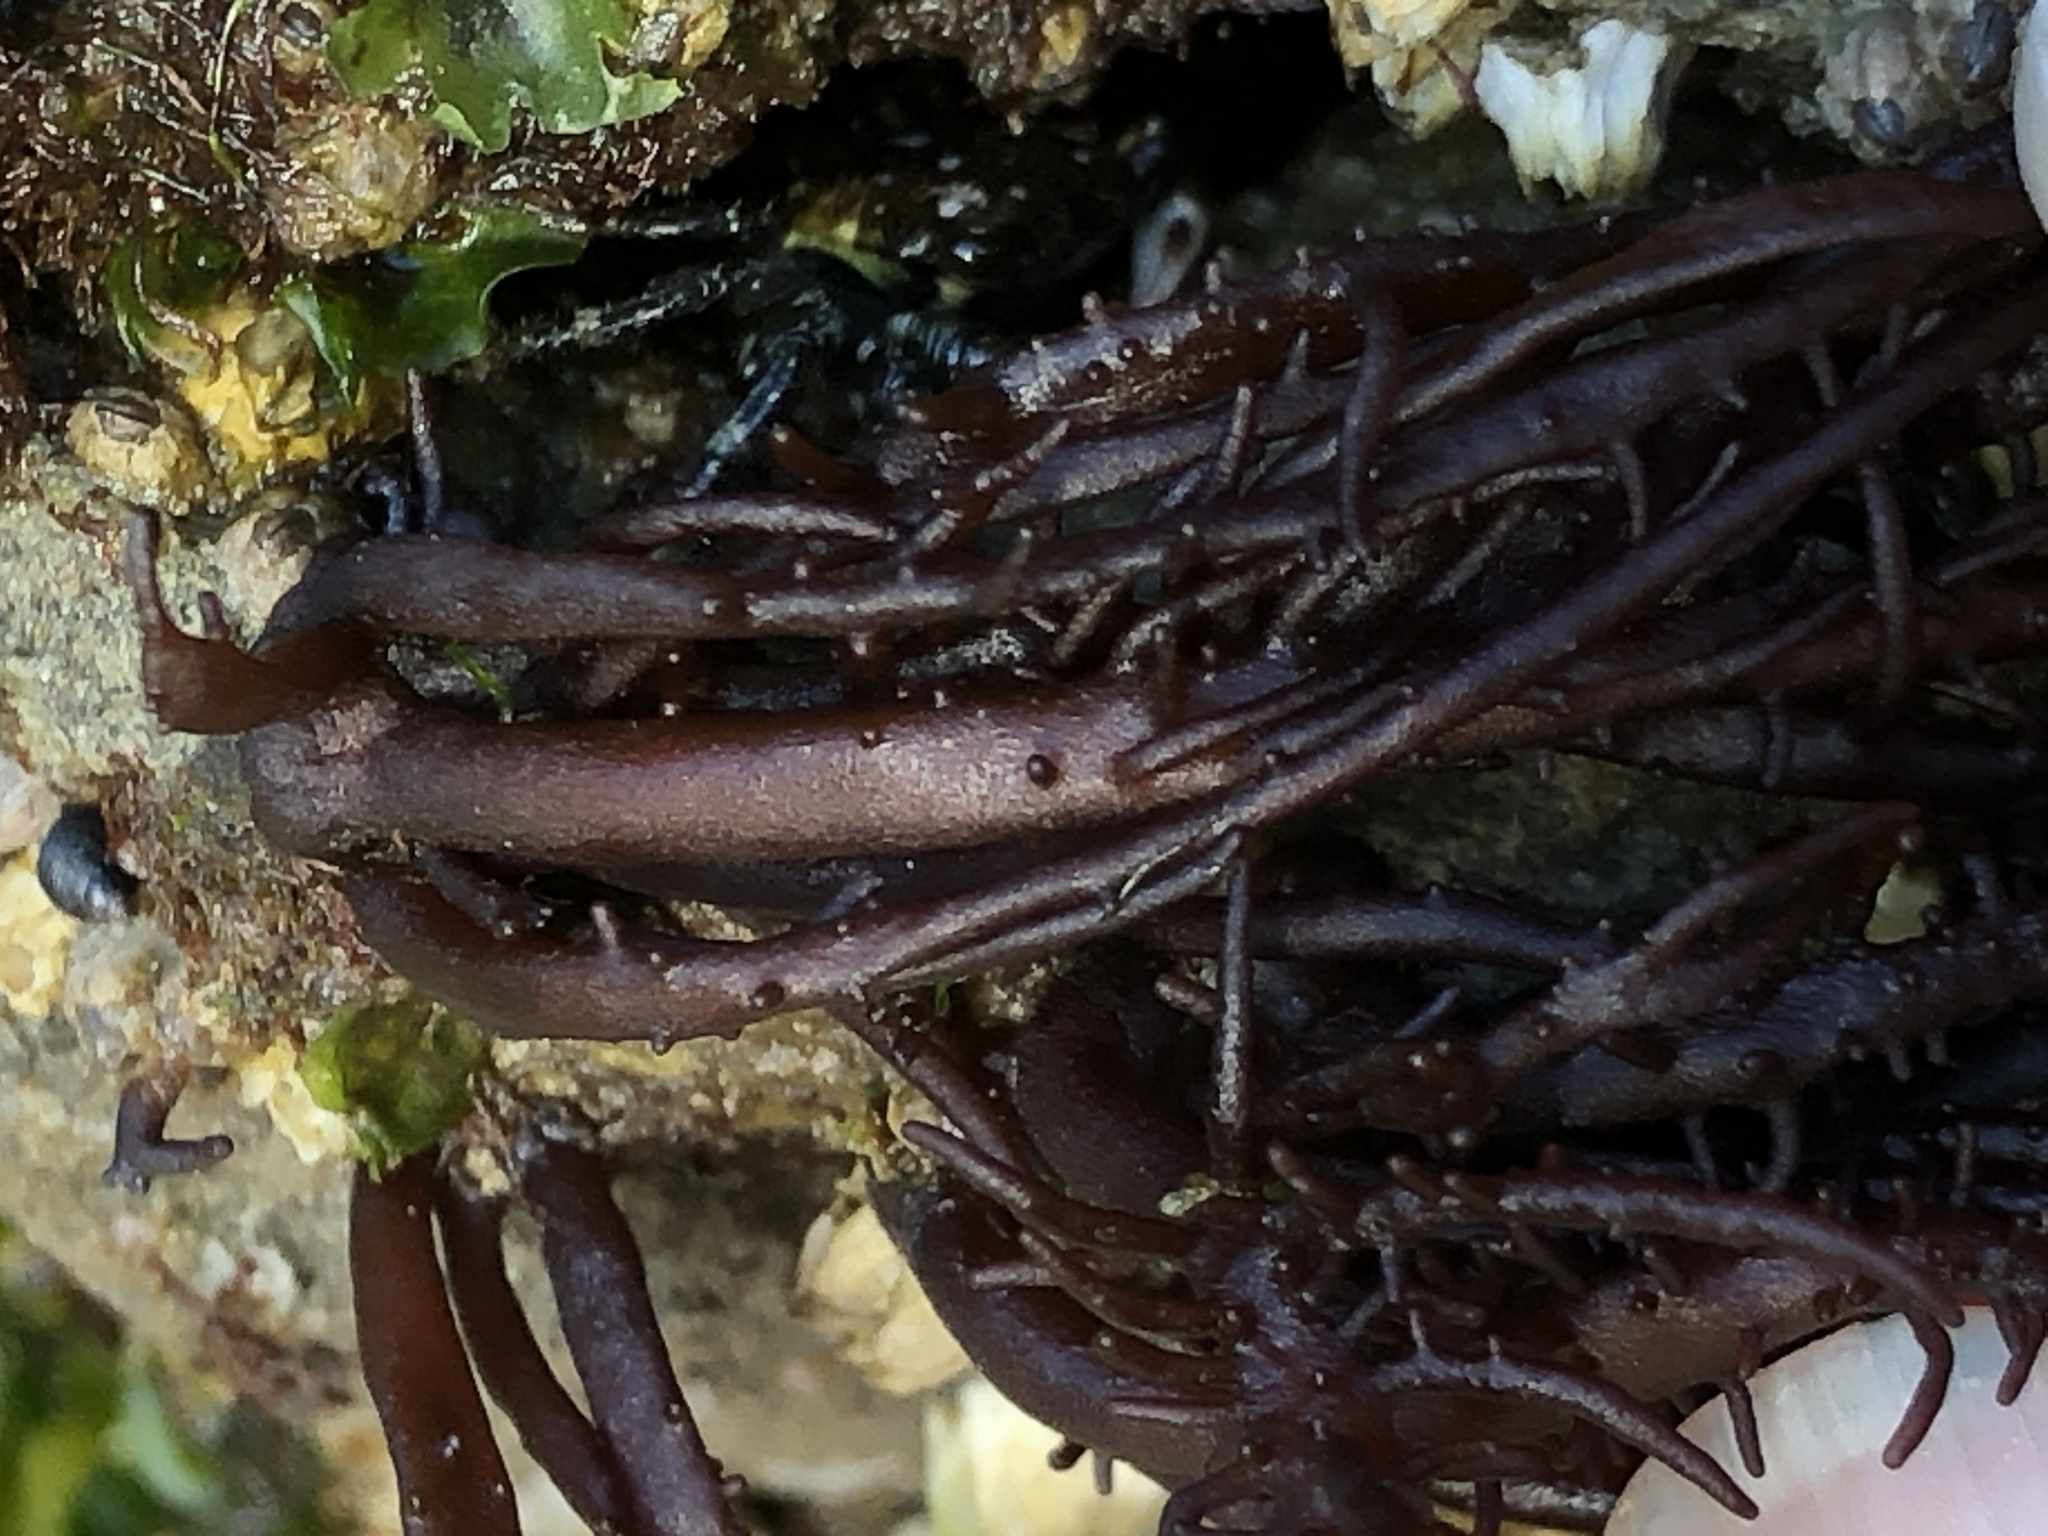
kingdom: Plantae
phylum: Rhodophyta
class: Florideophyceae
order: Nemaliales
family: Liagoraceae
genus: Cumagloia
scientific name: Cumagloia andersonii
